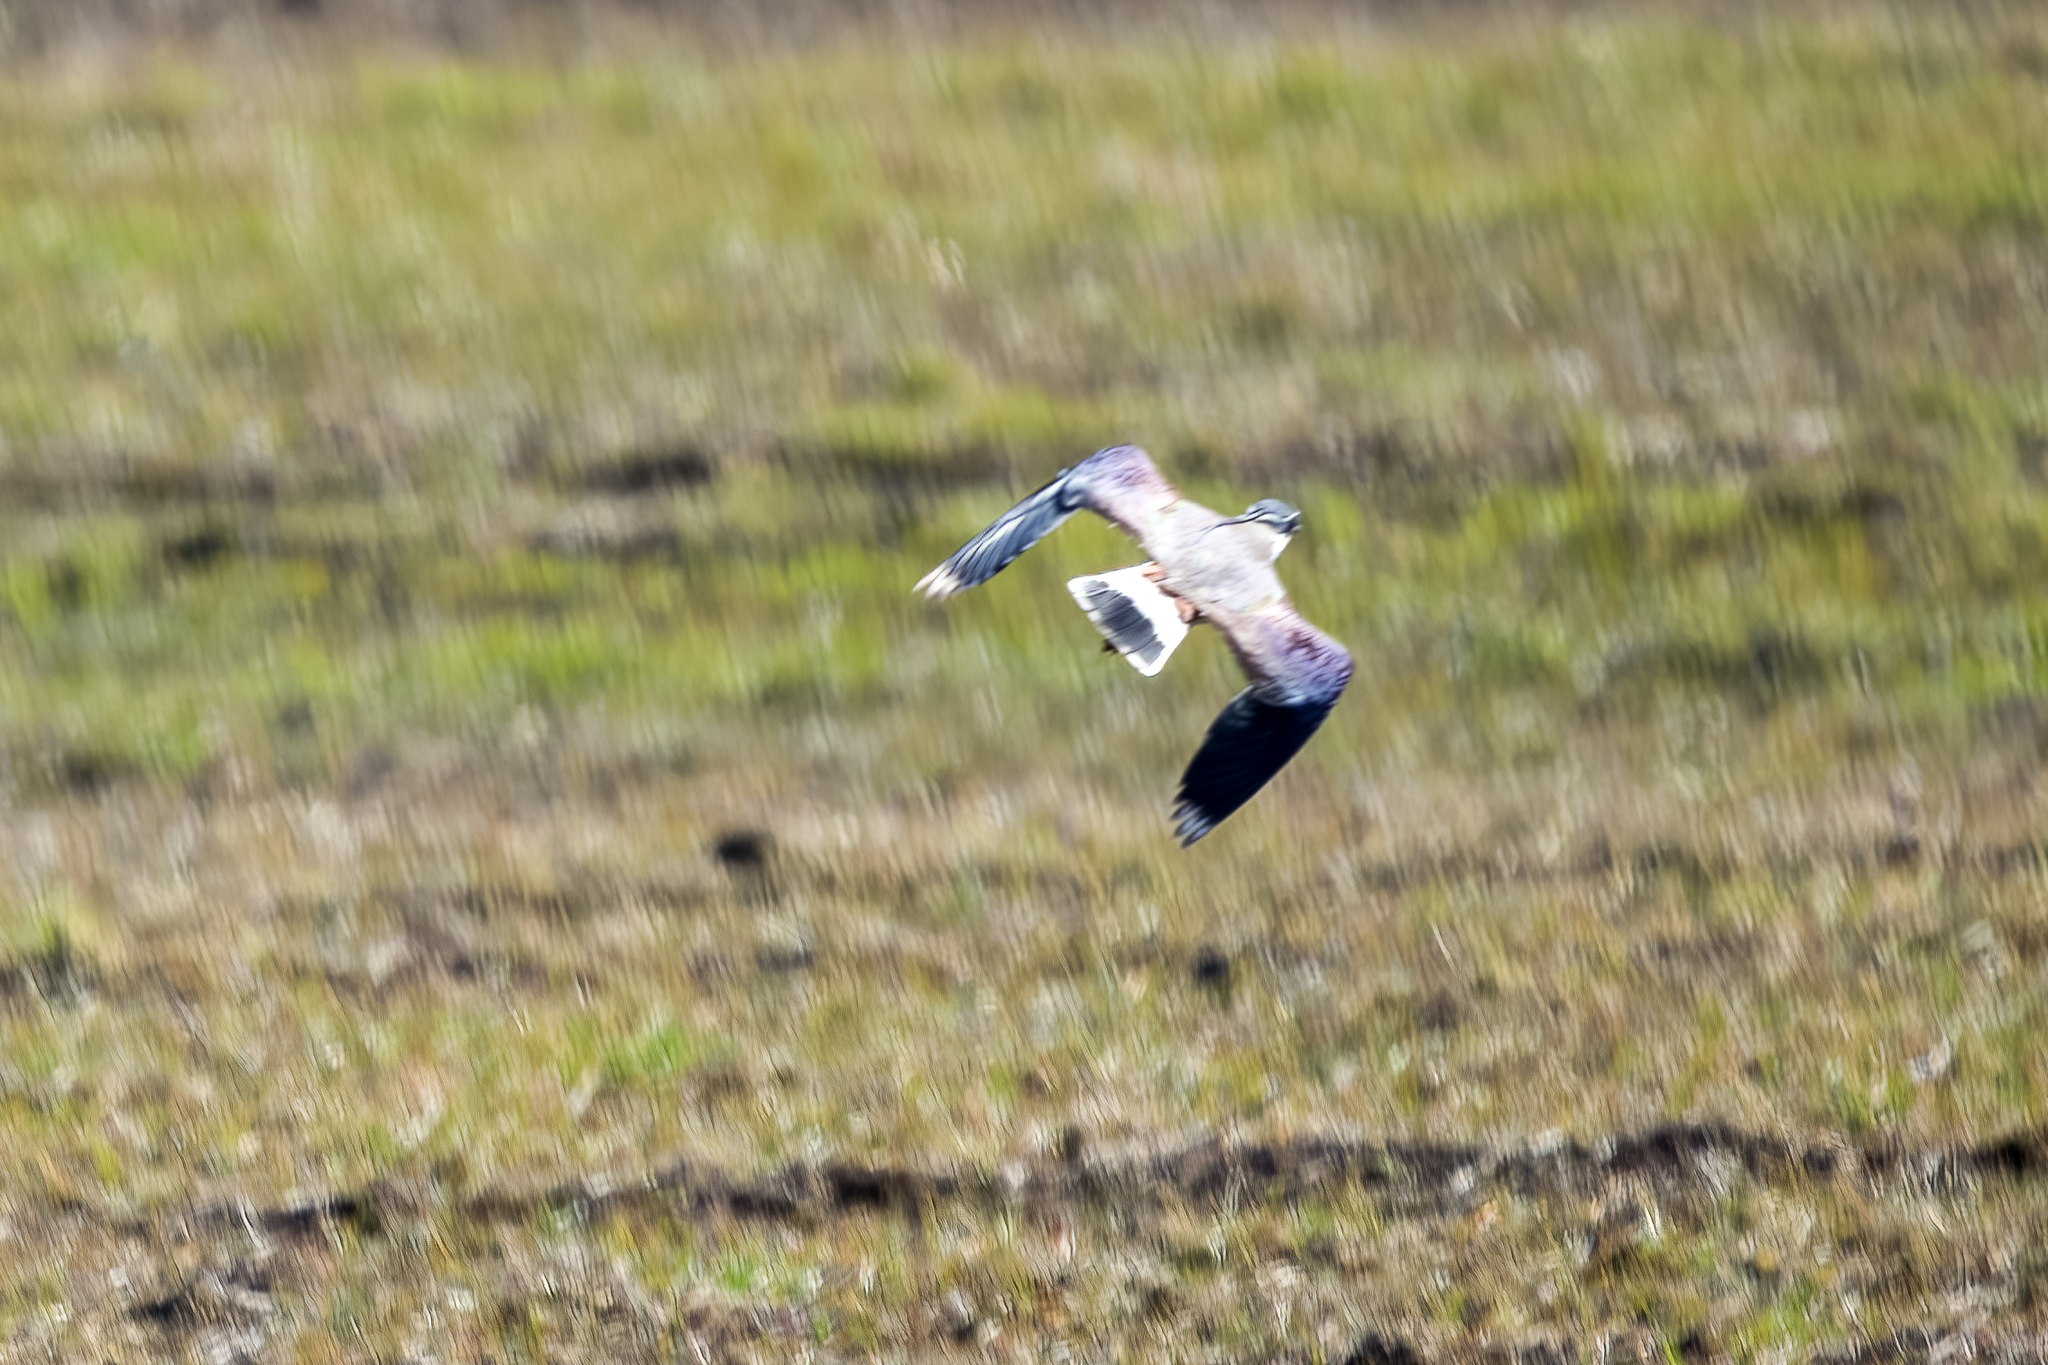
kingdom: Animalia
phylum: Chordata
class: Aves
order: Charadriiformes
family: Charadriidae
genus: Vanellus
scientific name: Vanellus vanellus
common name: Northern lapwing
